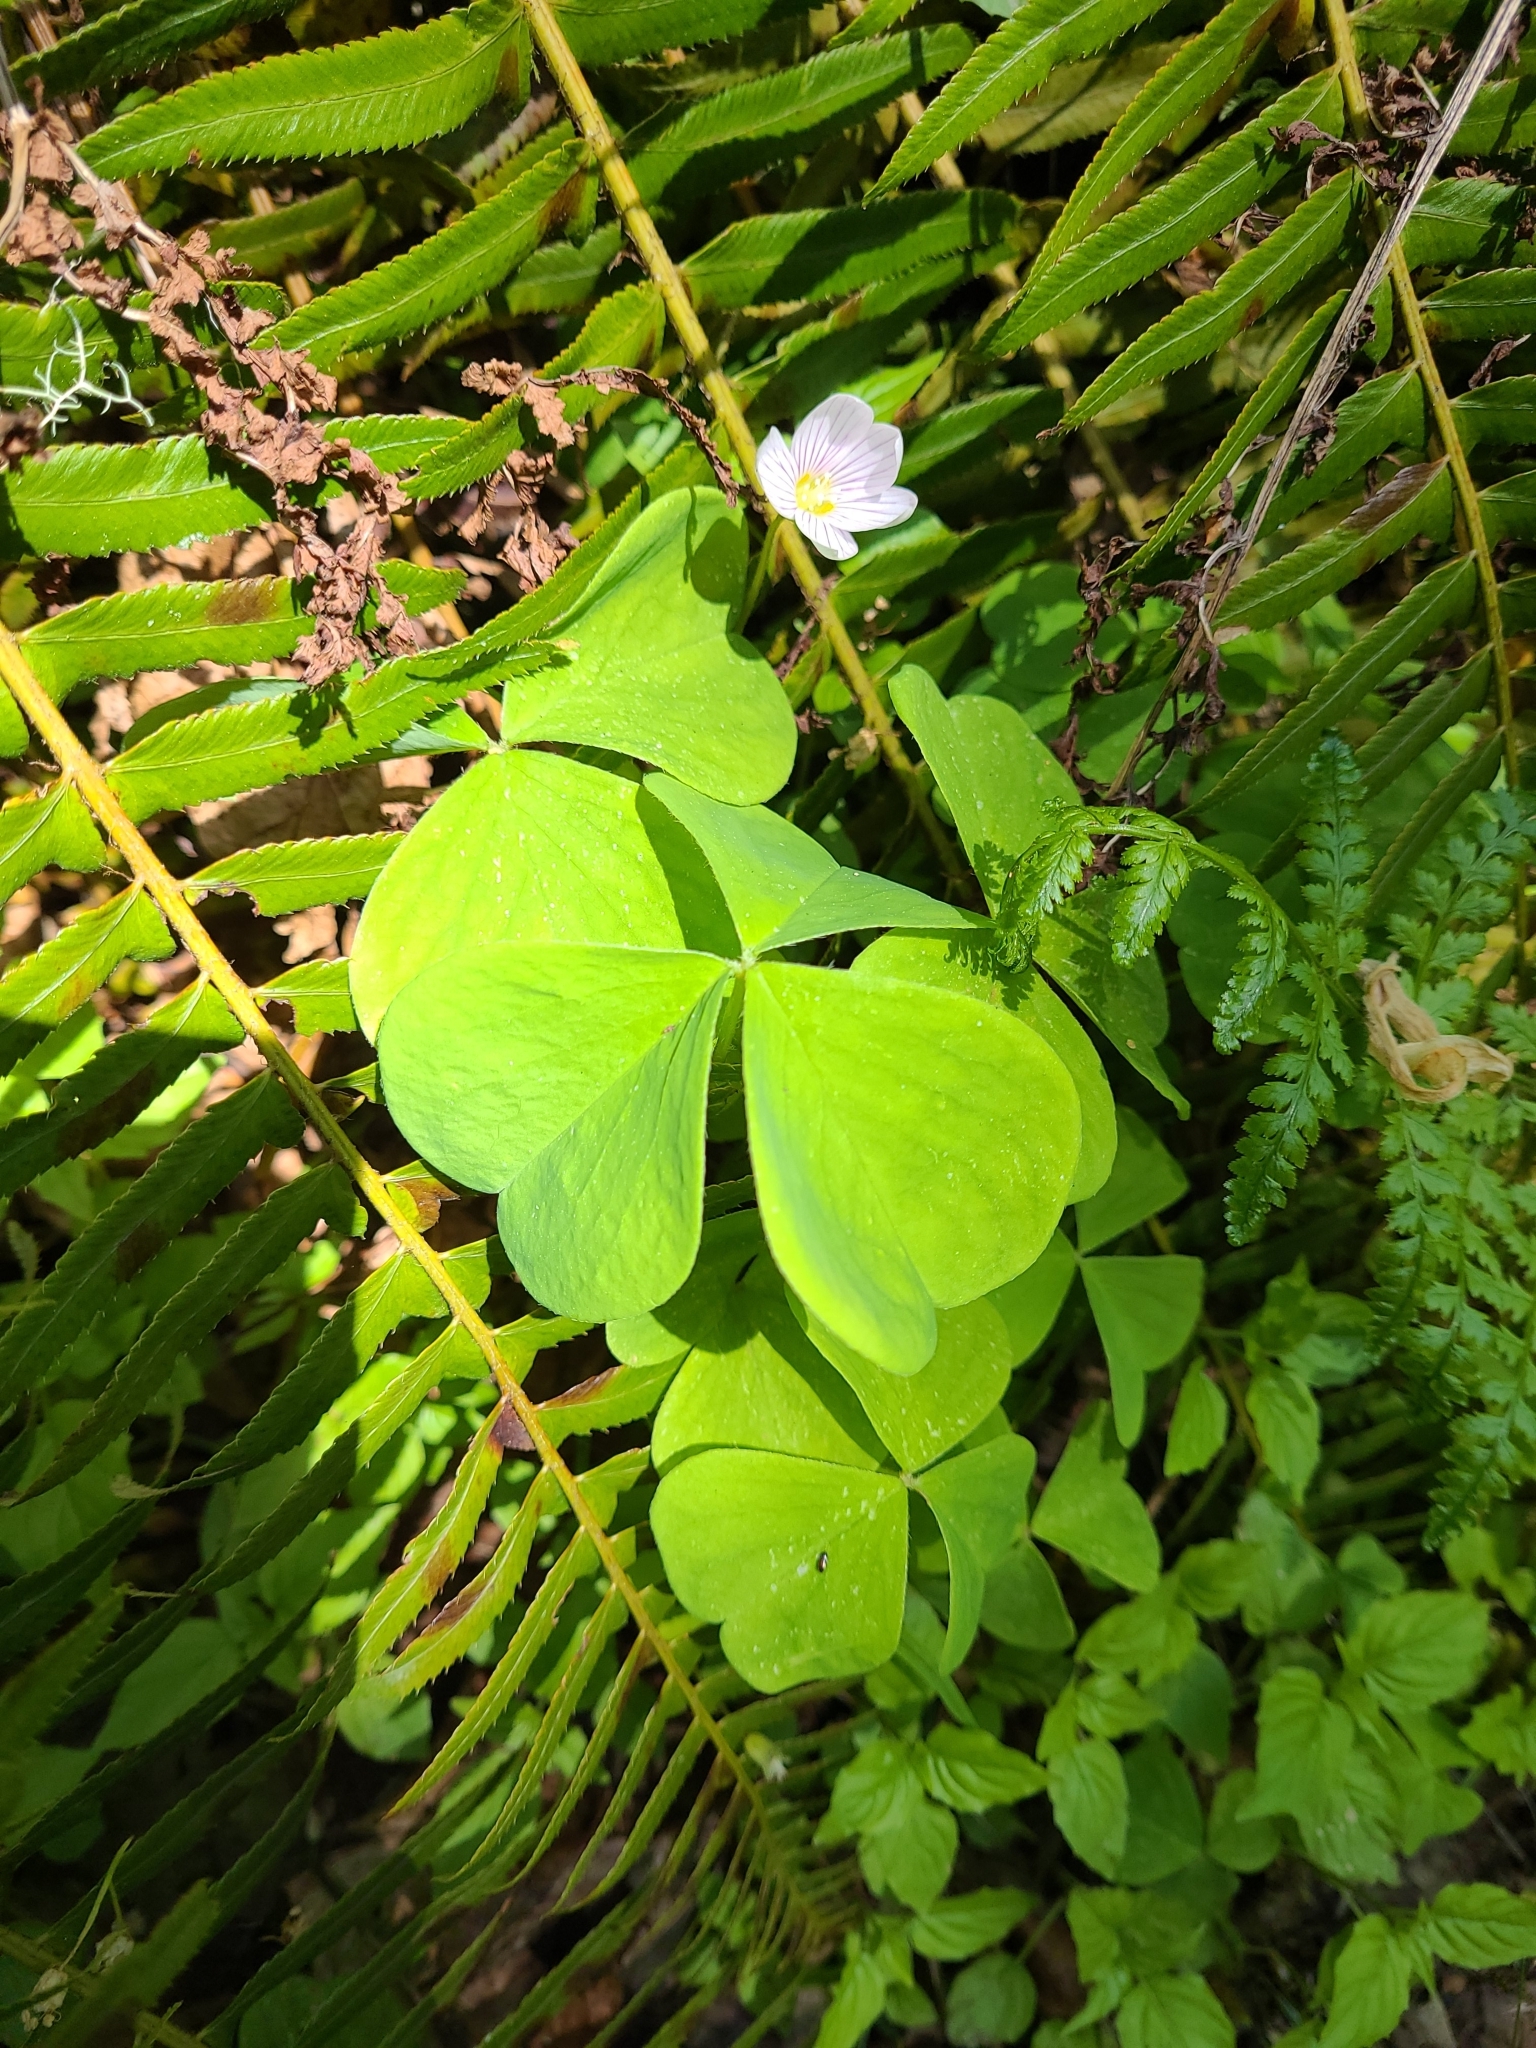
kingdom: Plantae
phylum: Tracheophyta
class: Magnoliopsida
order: Oxalidales
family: Oxalidaceae
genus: Oxalis
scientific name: Oxalis oregana
